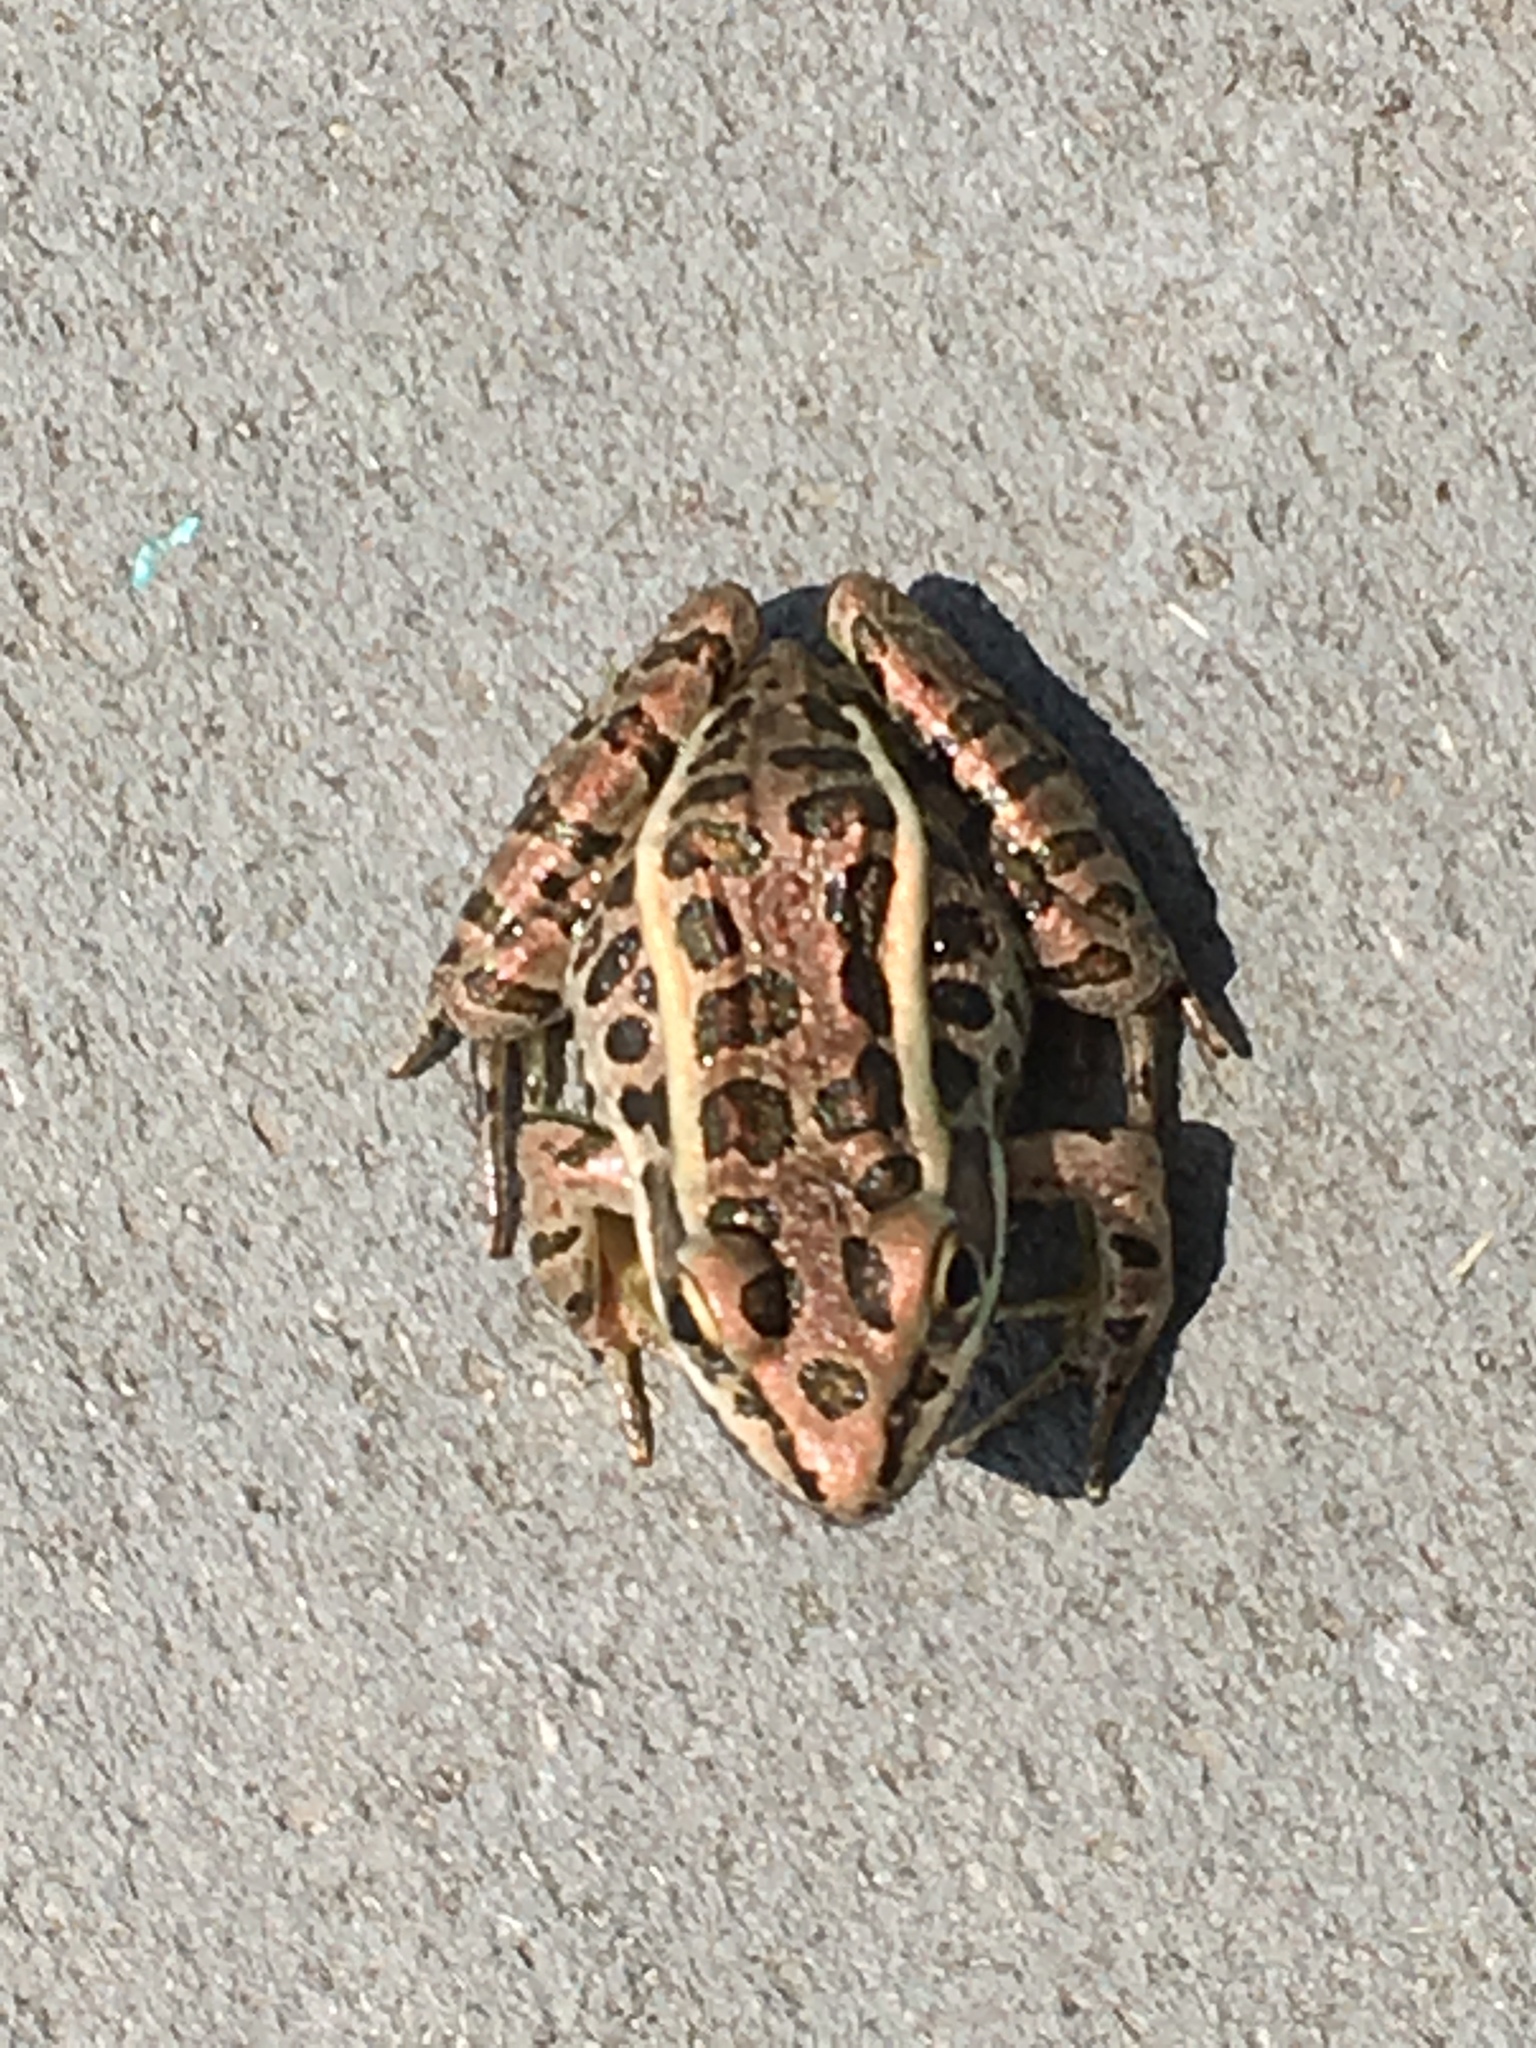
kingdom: Animalia
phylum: Chordata
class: Amphibia
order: Anura
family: Ranidae
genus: Lithobates
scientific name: Lithobates palustris
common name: Pickerel frog
